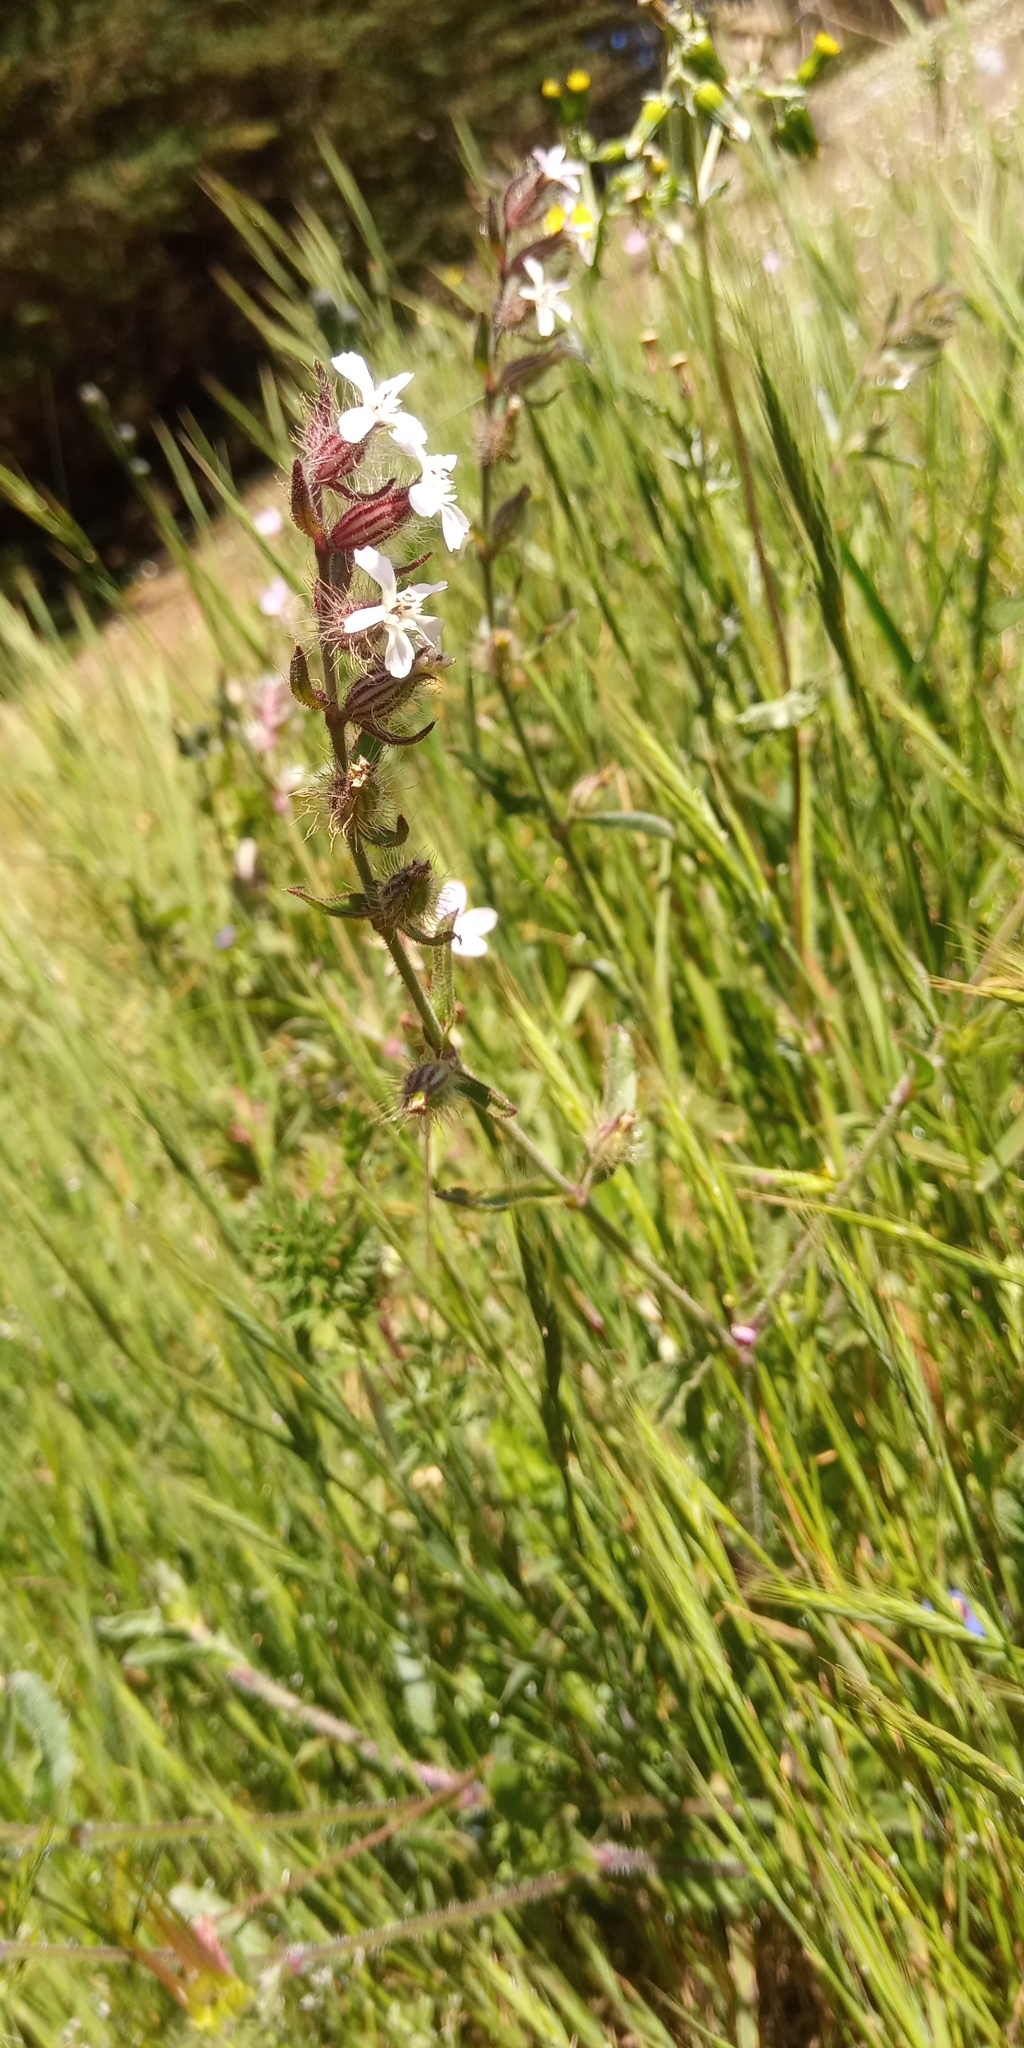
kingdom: Plantae
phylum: Tracheophyta
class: Magnoliopsida
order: Caryophyllales
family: Caryophyllaceae
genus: Silene
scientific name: Silene gallica
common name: Small-flowered catchfly
